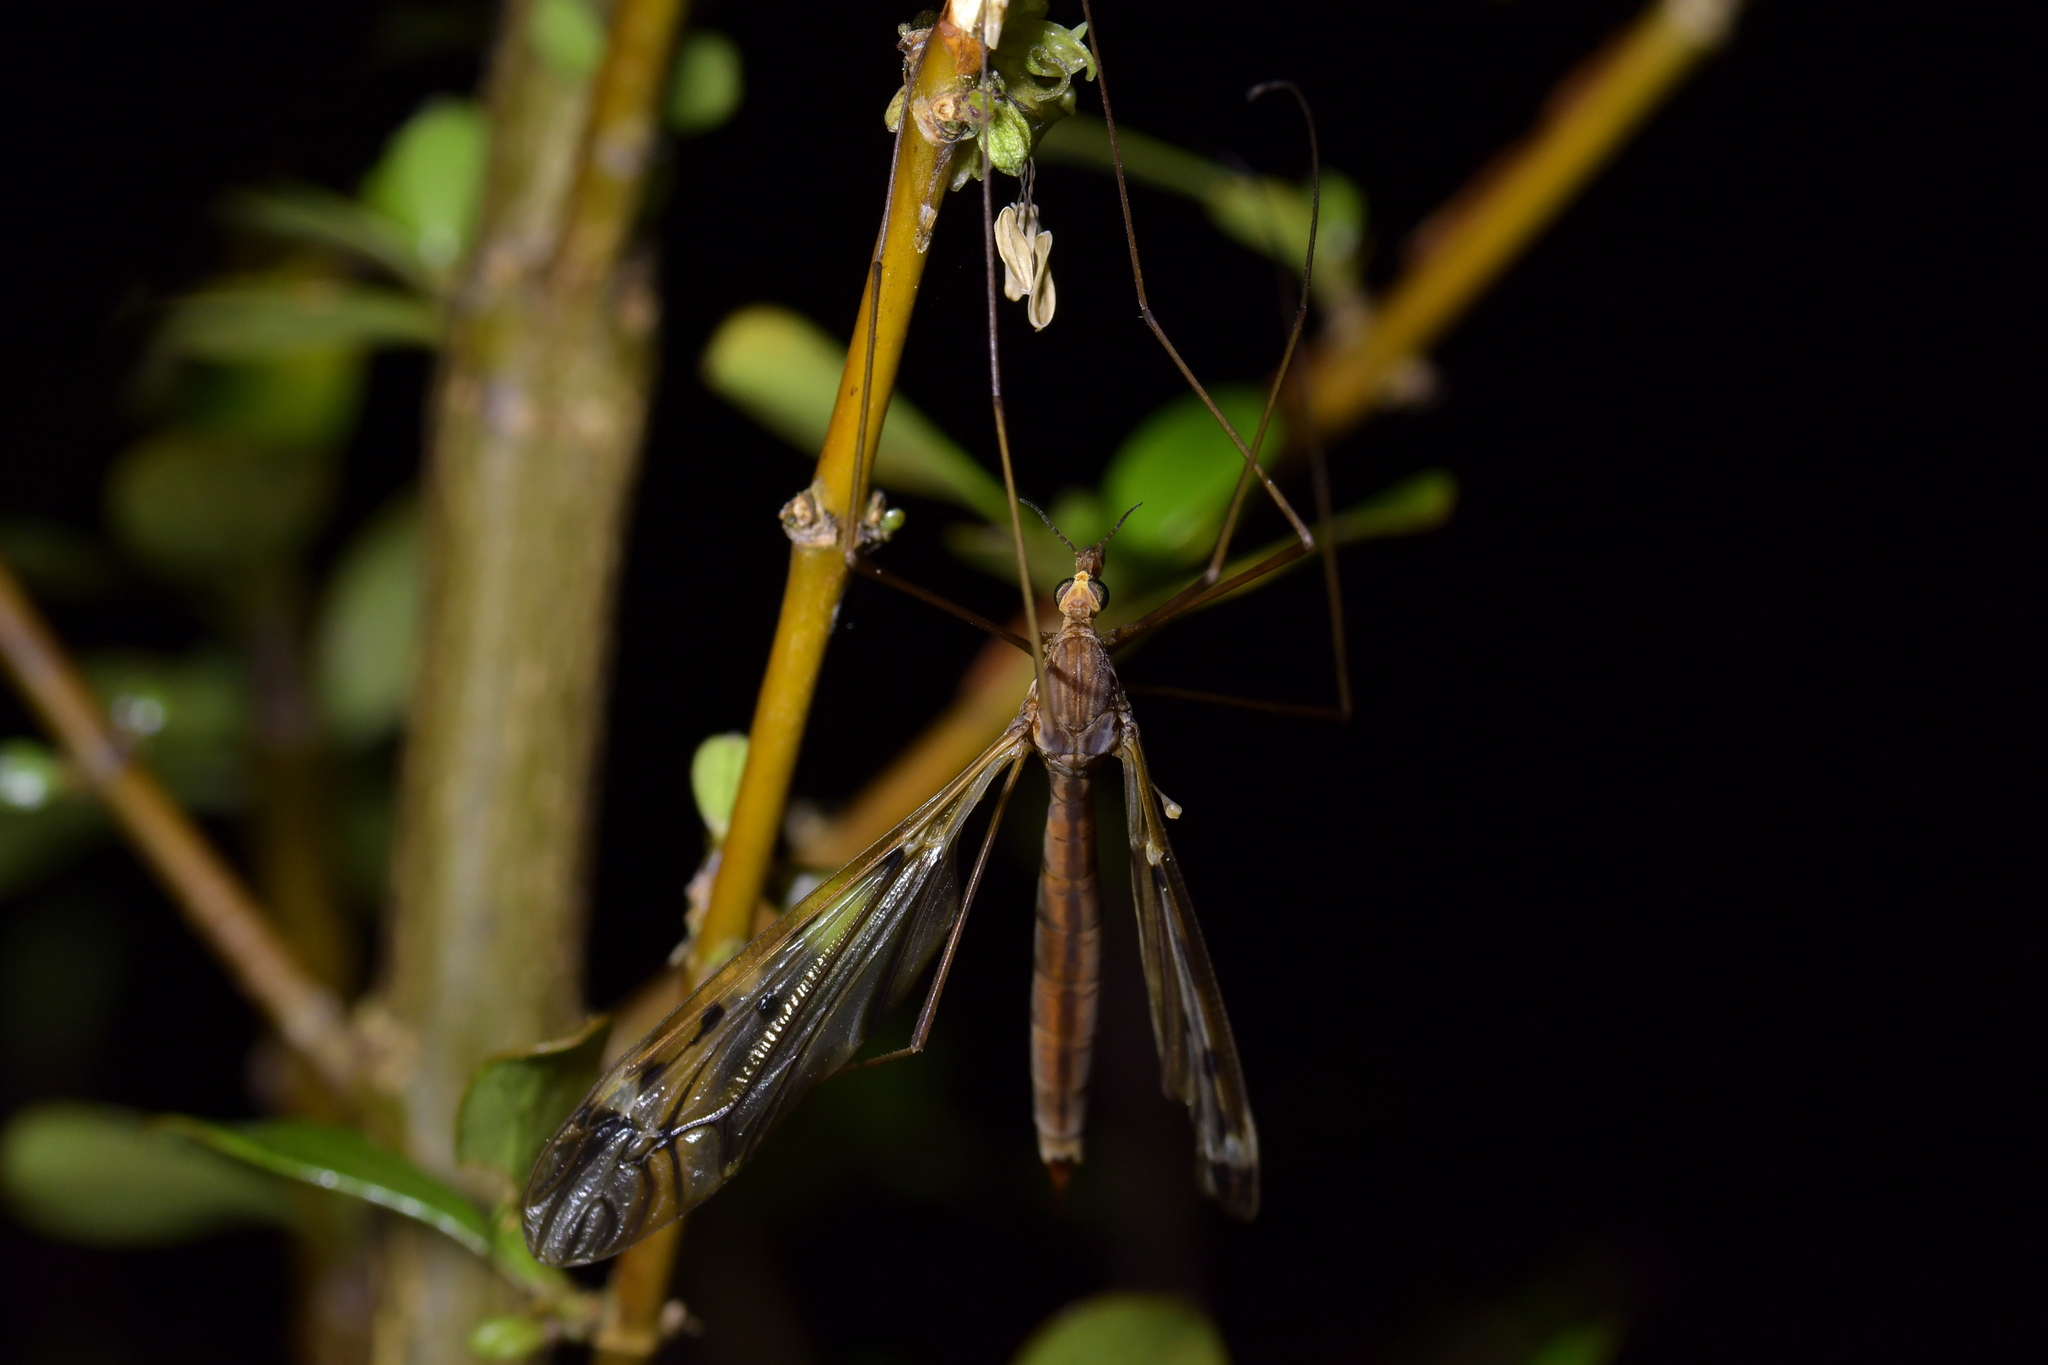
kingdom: Animalia
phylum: Arthropoda
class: Insecta
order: Diptera
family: Tipulidae
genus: Zelandotipula
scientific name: Zelandotipula fulva
